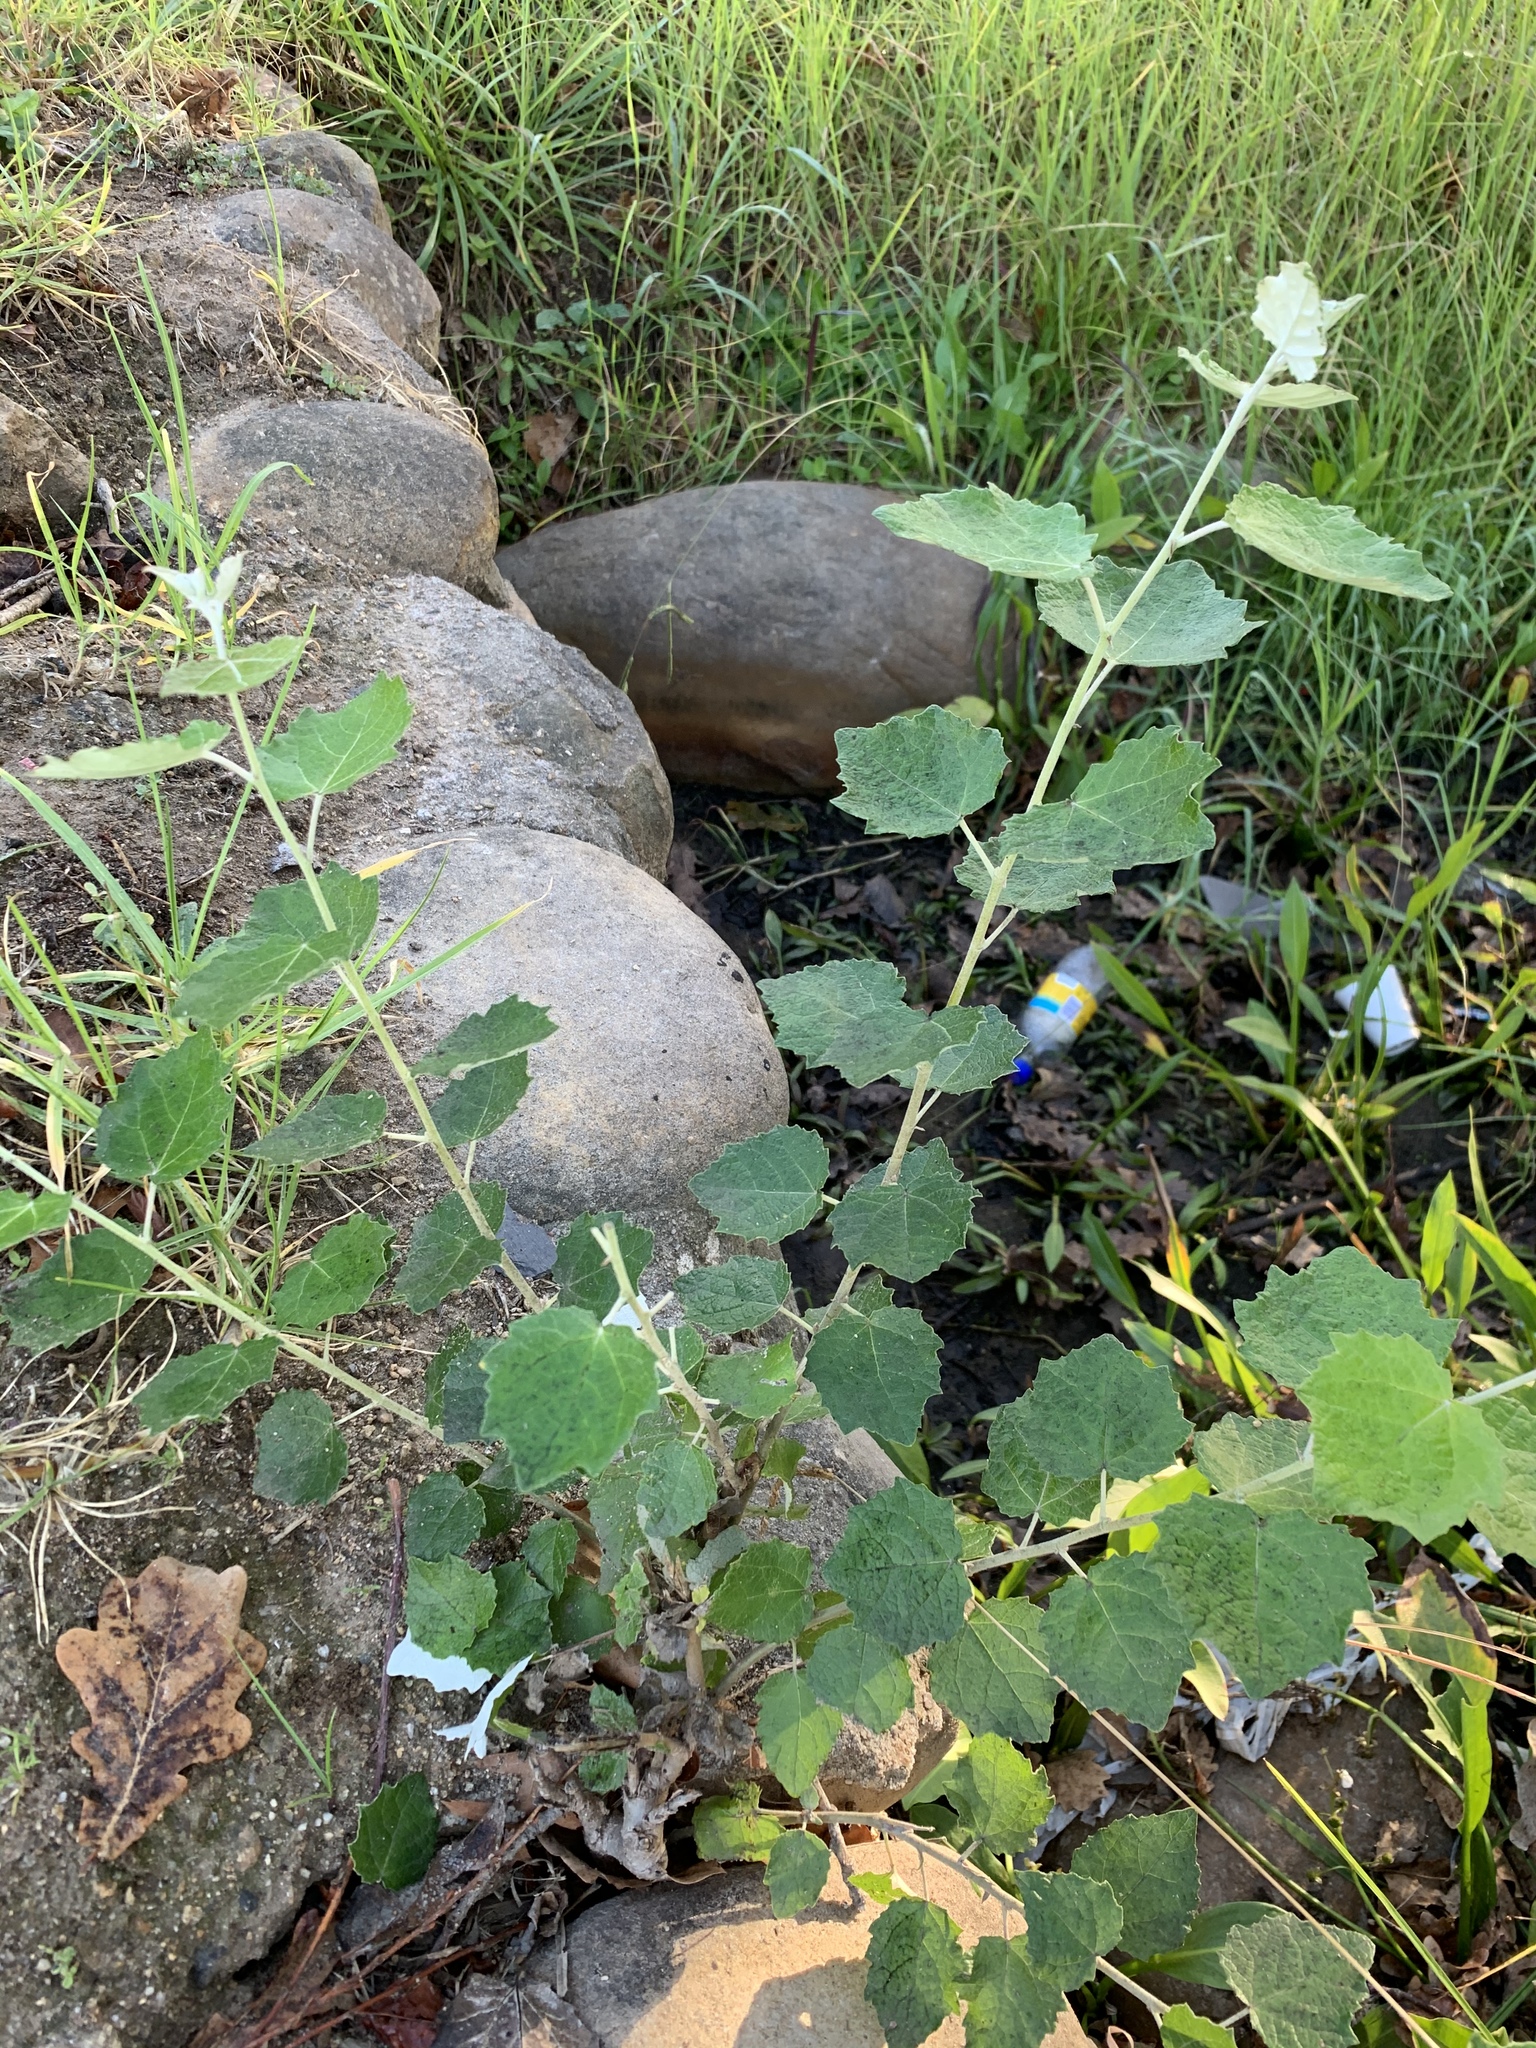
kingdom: Plantae
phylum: Tracheophyta
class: Magnoliopsida
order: Malpighiales
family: Salicaceae
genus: Populus
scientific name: Populus canescens
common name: Gray poplar
